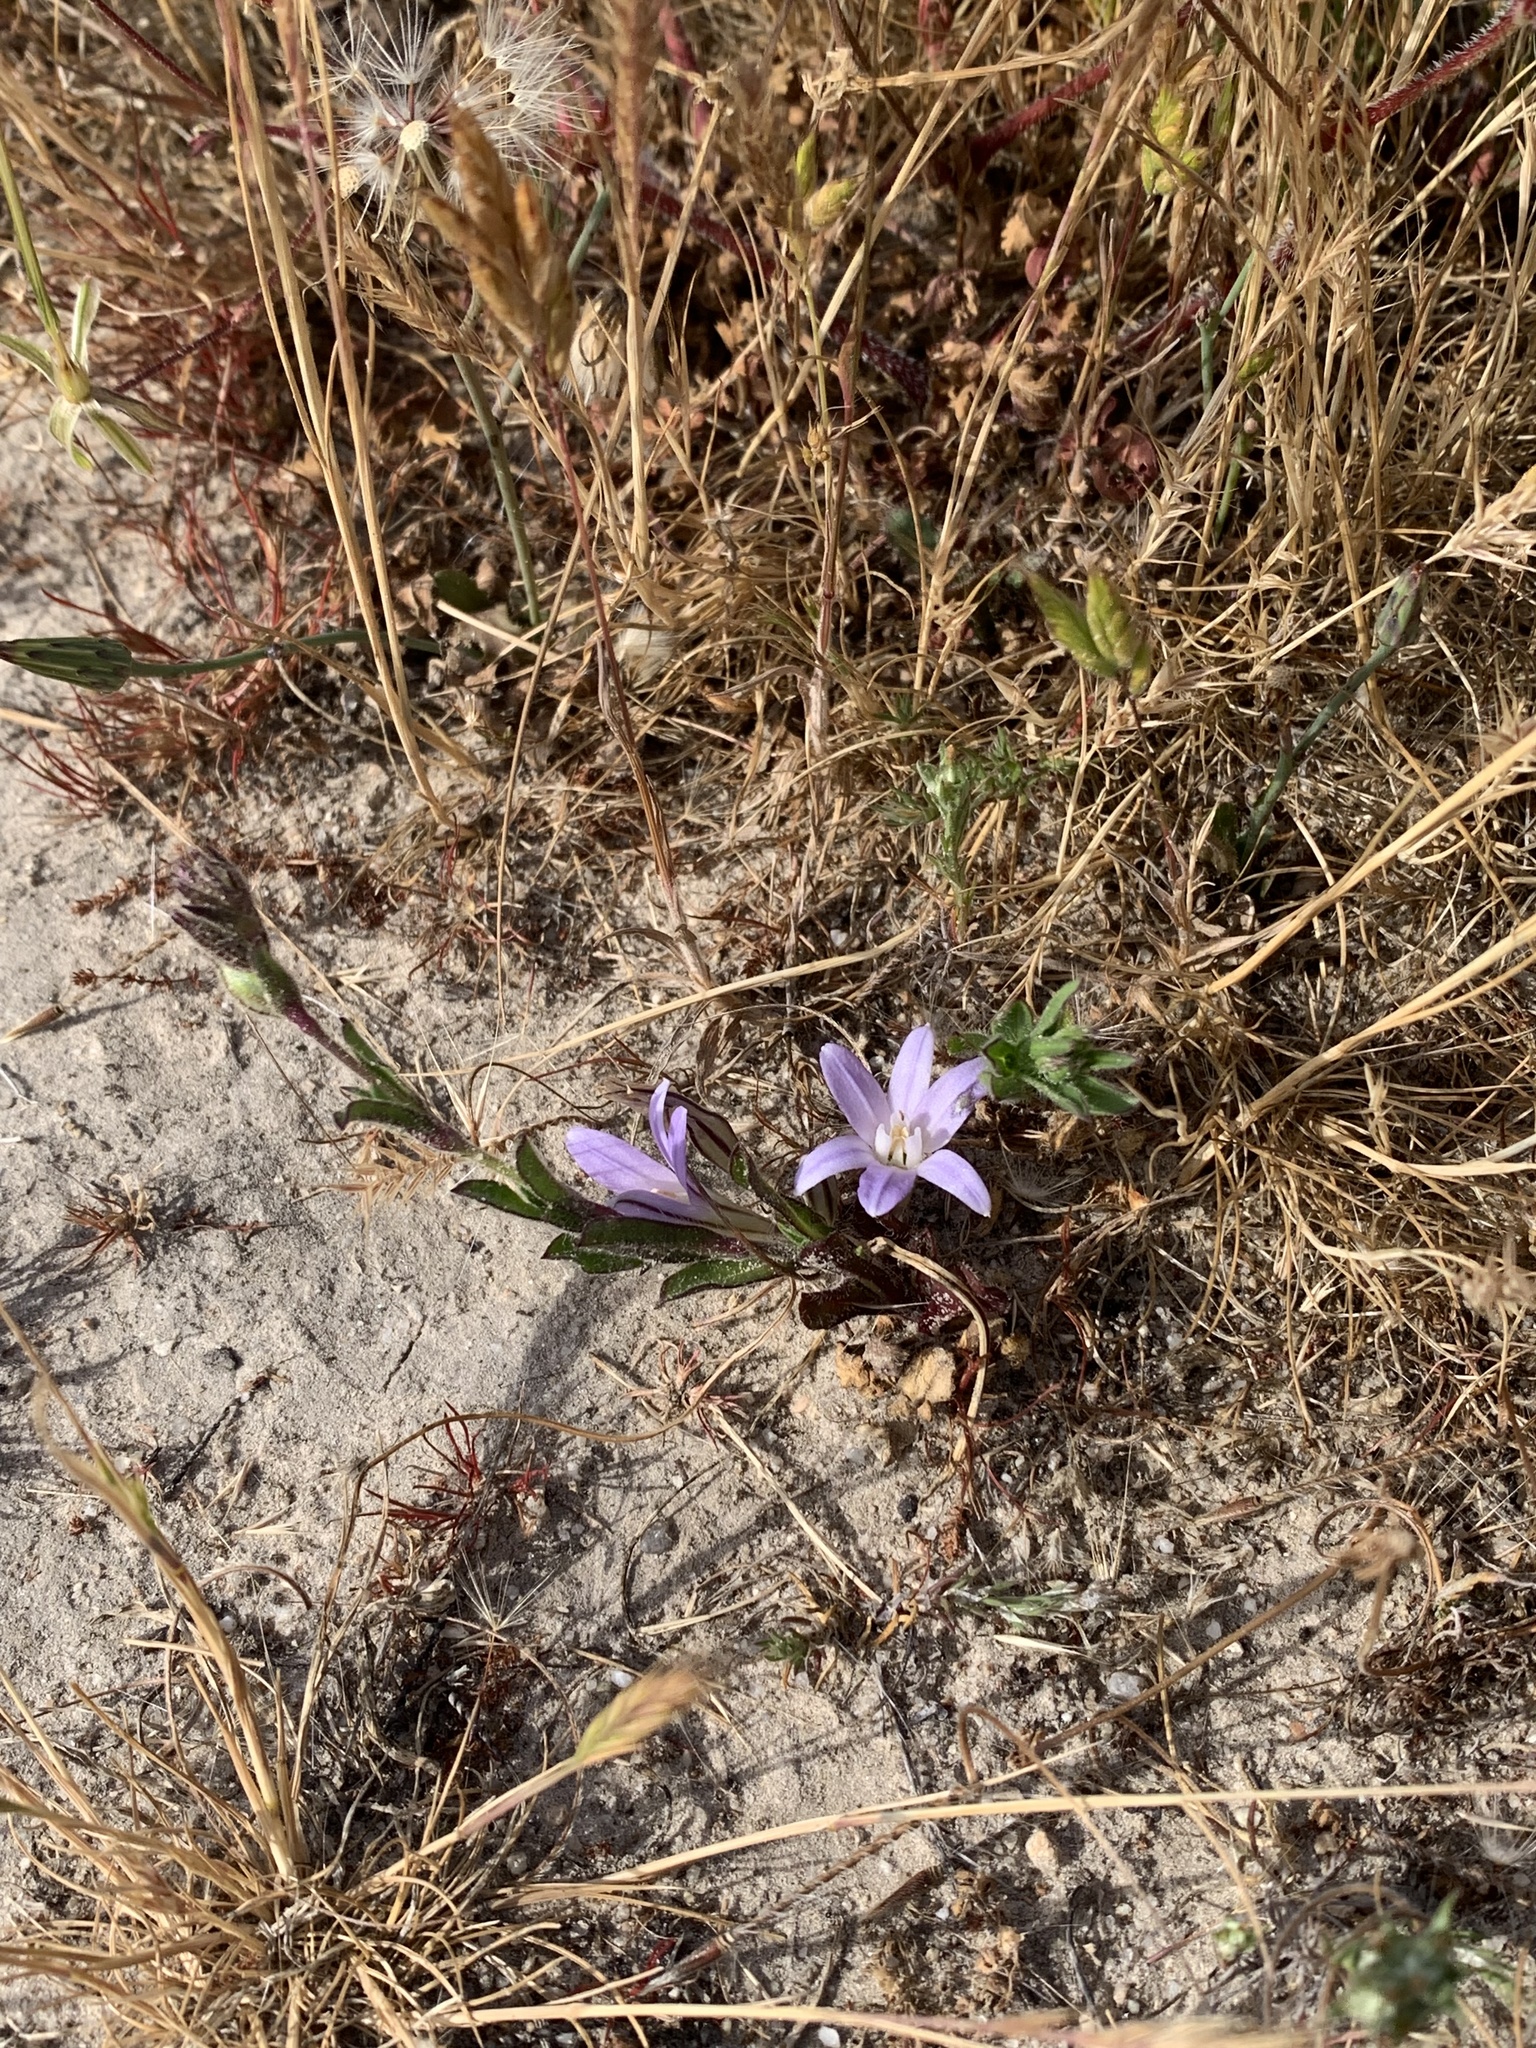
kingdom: Plantae
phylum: Tracheophyta
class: Liliopsida
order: Asparagales
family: Asparagaceae
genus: Brodiaea
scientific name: Brodiaea terrestris
